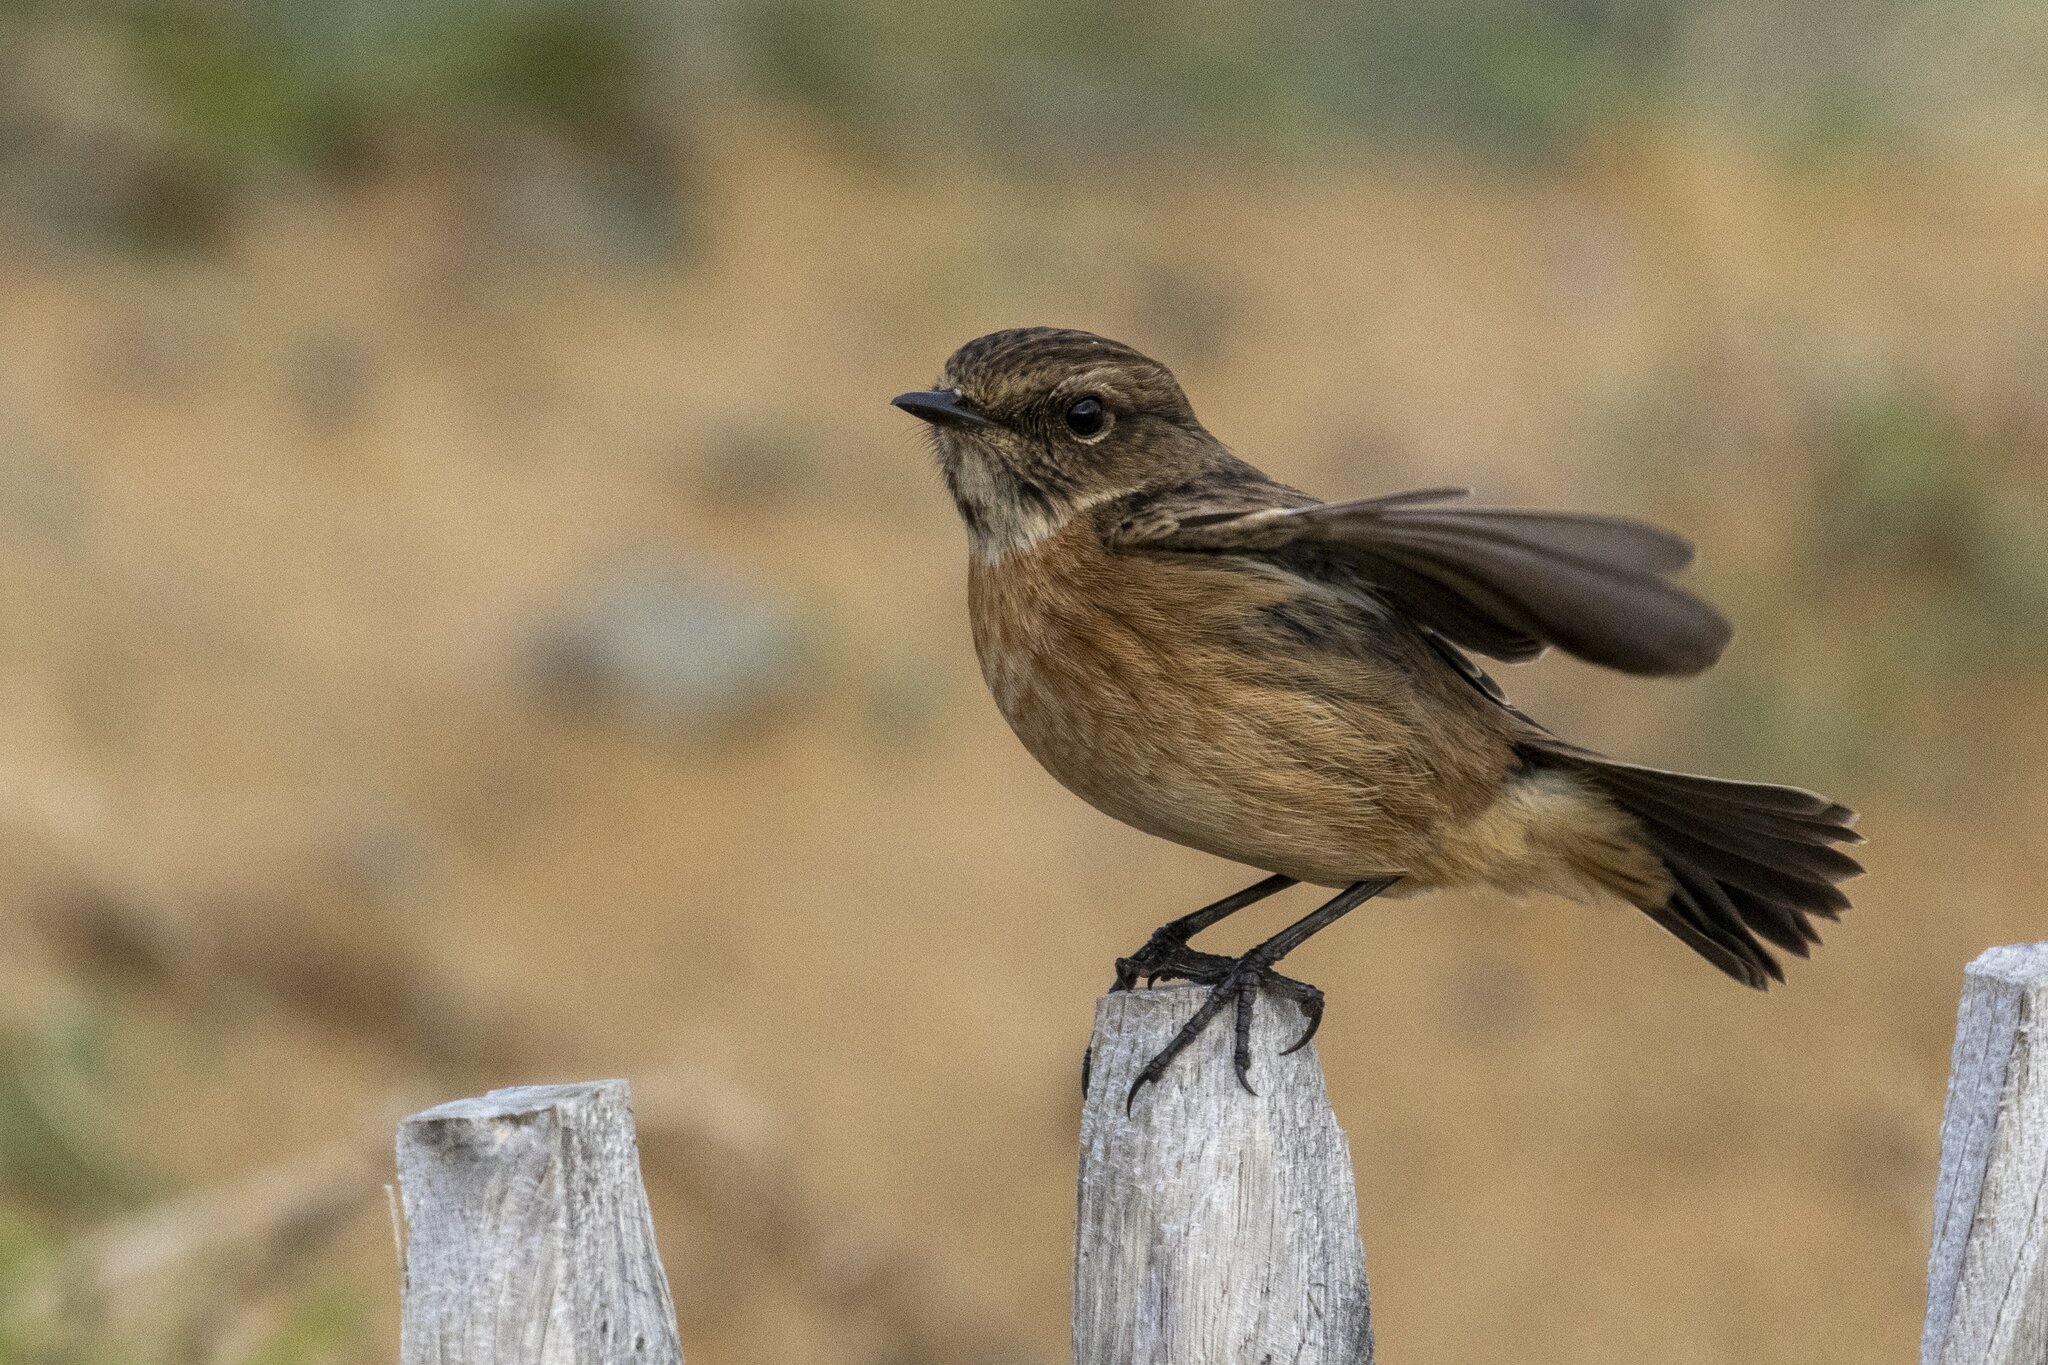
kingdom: Animalia
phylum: Chordata
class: Aves
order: Passeriformes
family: Muscicapidae
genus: Saxicola
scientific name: Saxicola rubicola
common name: European stonechat
